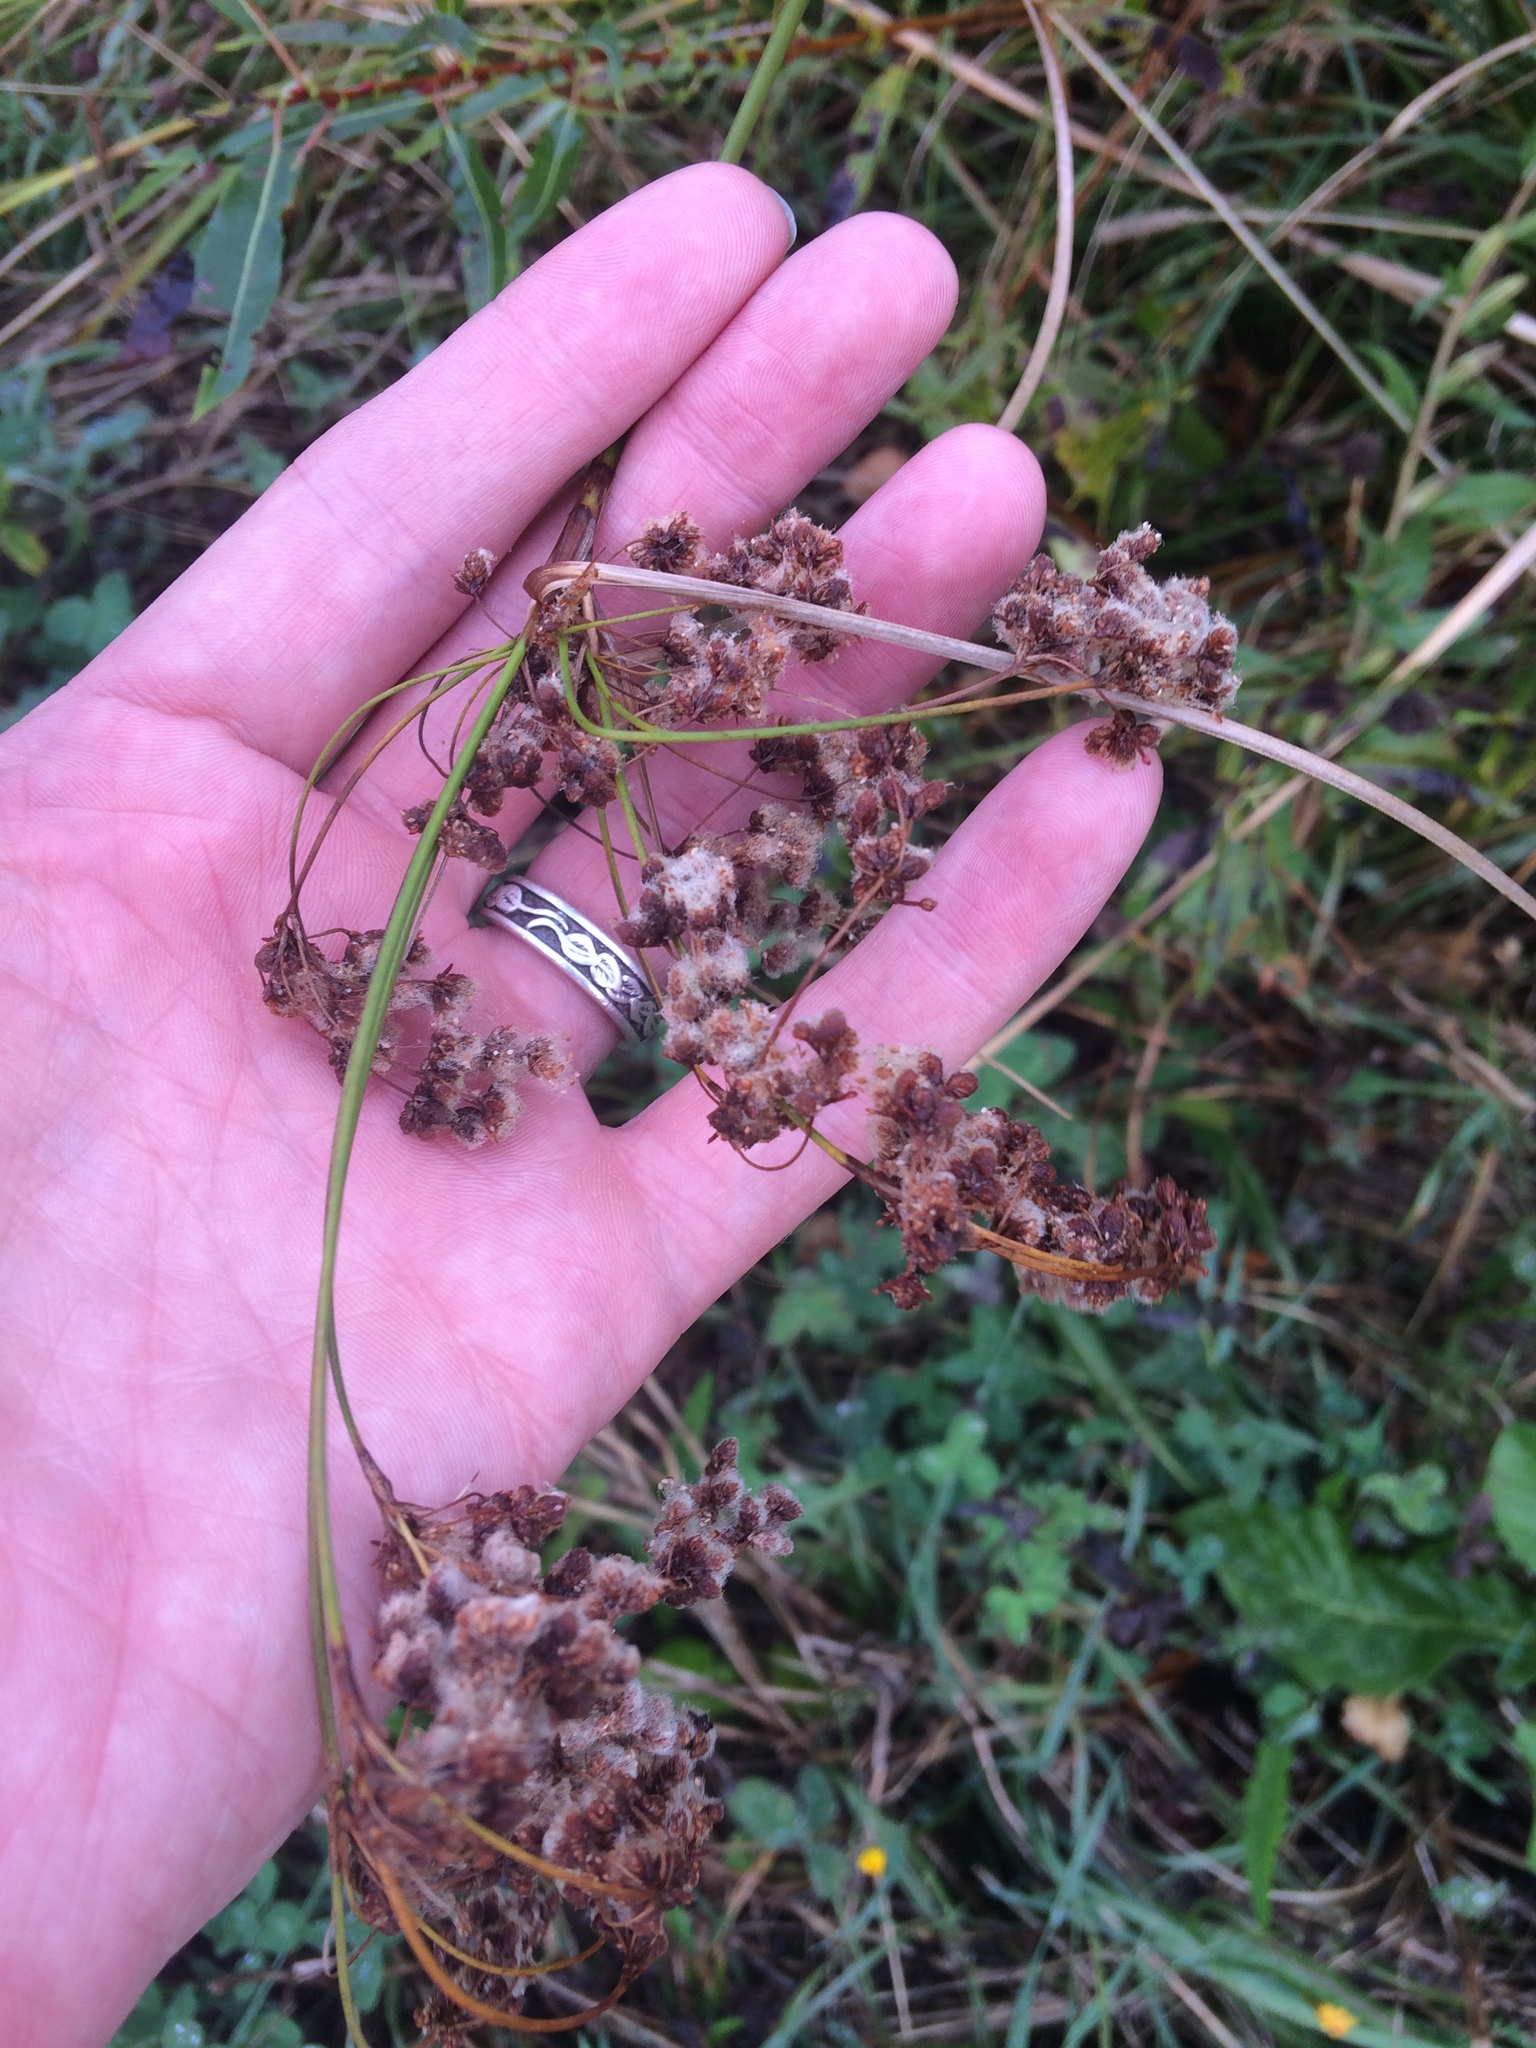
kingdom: Plantae
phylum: Tracheophyta
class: Liliopsida
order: Poales
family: Cyperaceae
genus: Scirpus
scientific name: Scirpus cyperinus
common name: Black-sheathed bulrush
